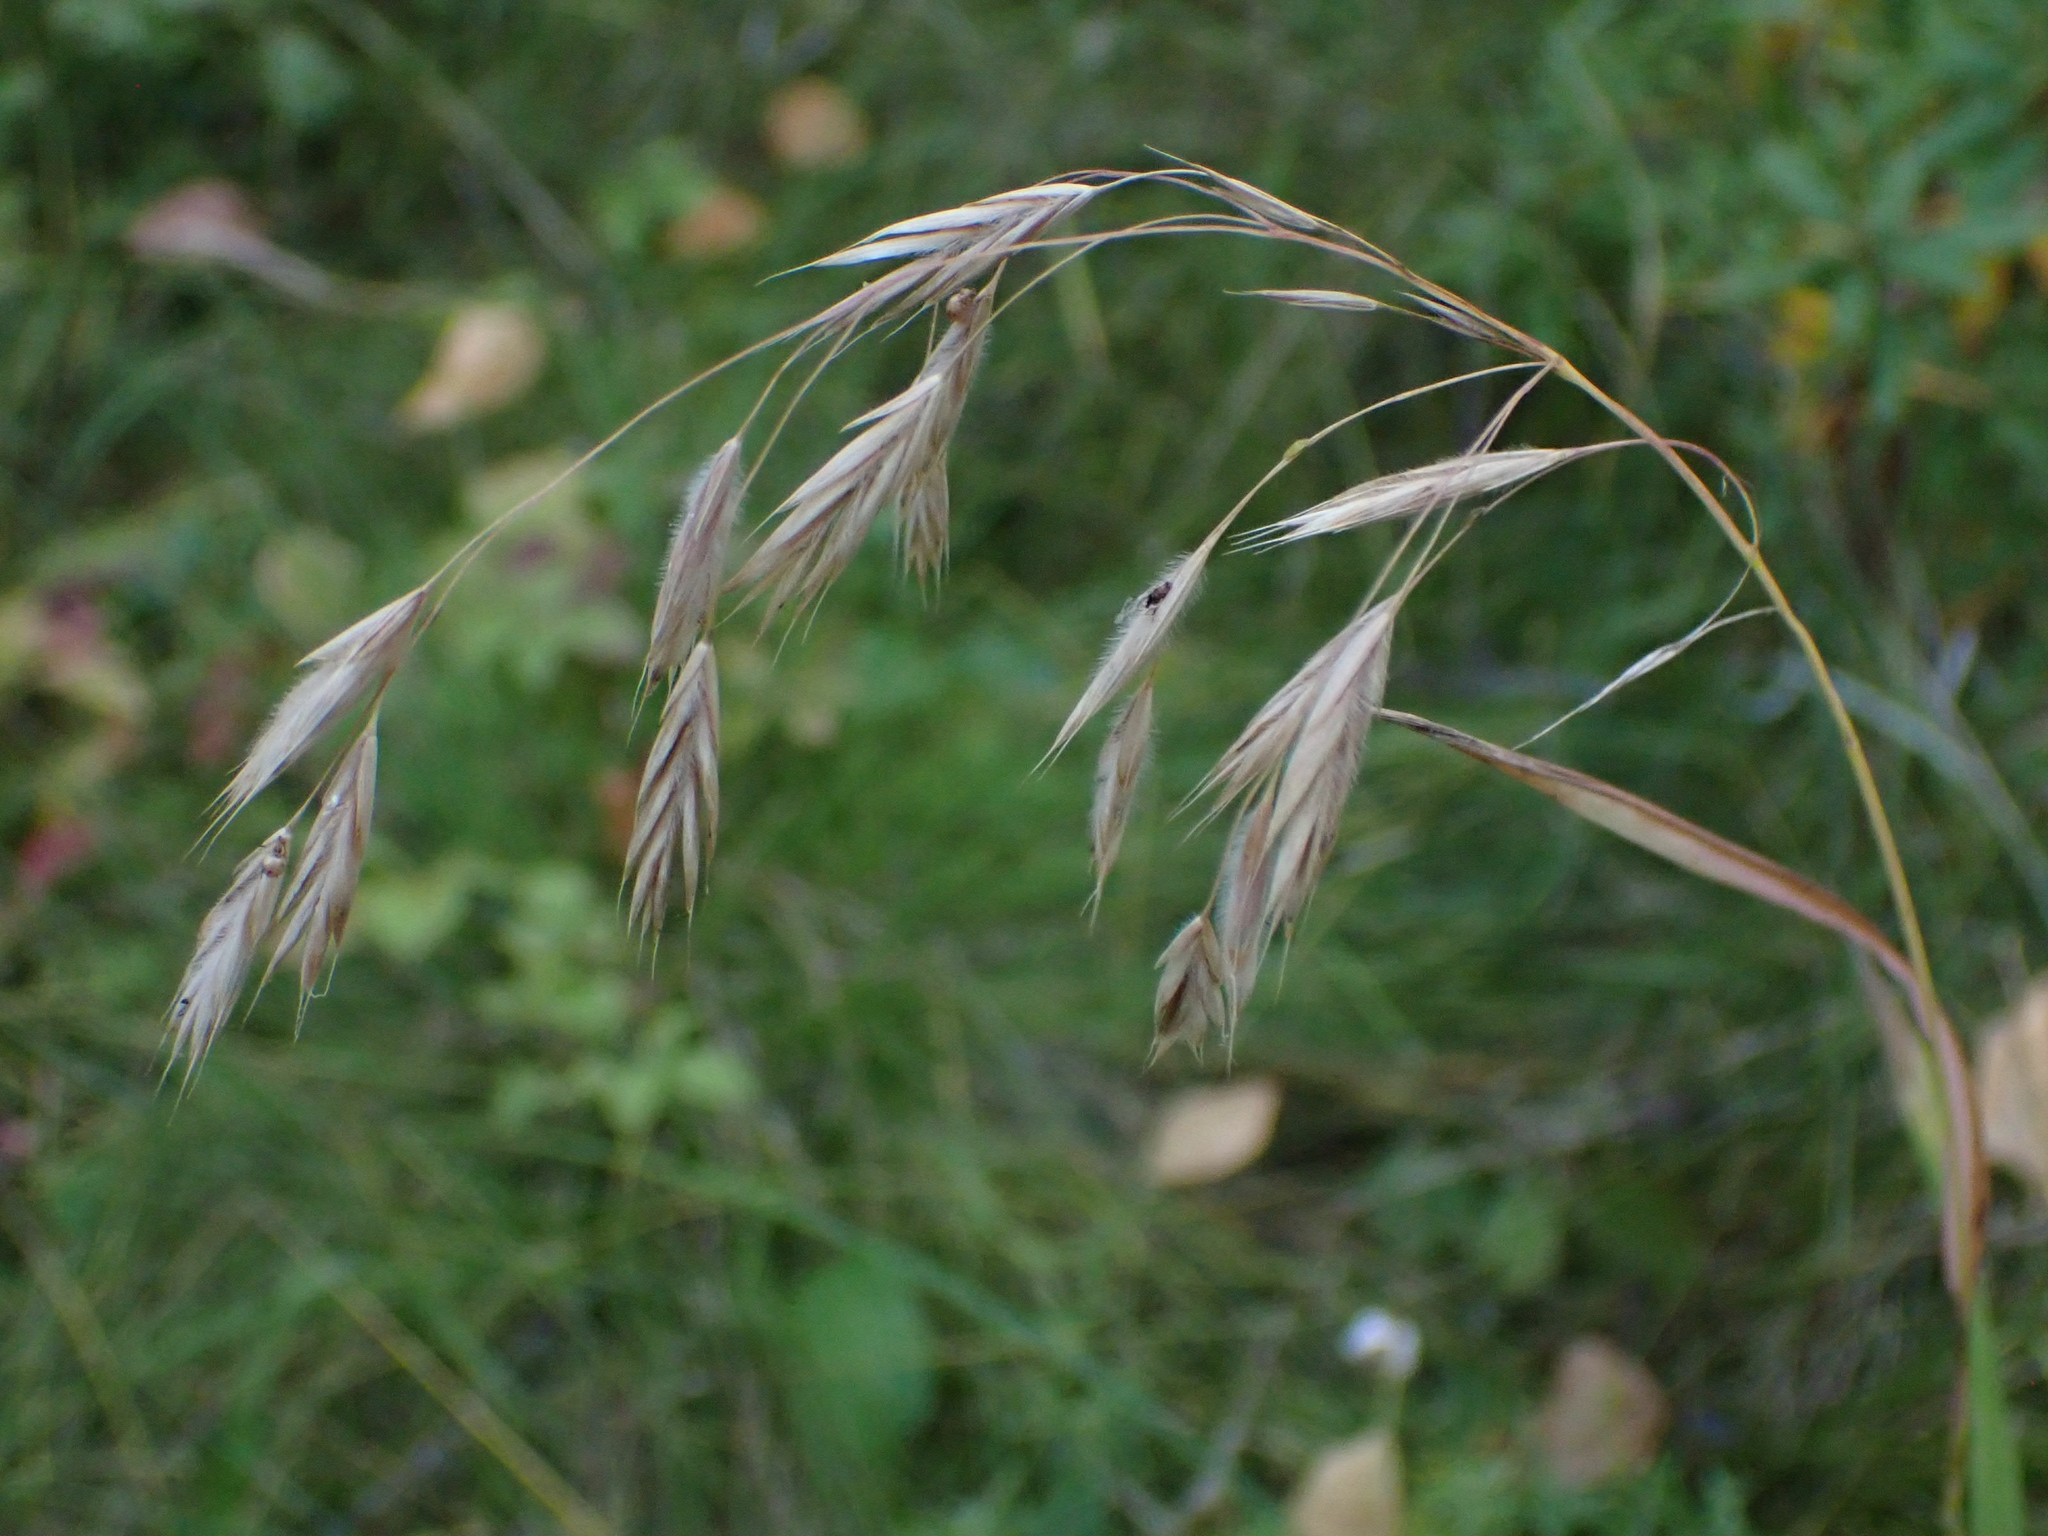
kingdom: Plantae
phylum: Tracheophyta
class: Liliopsida
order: Poales
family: Poaceae
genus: Bromus
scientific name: Bromus ciliatus
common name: Fringe brome
